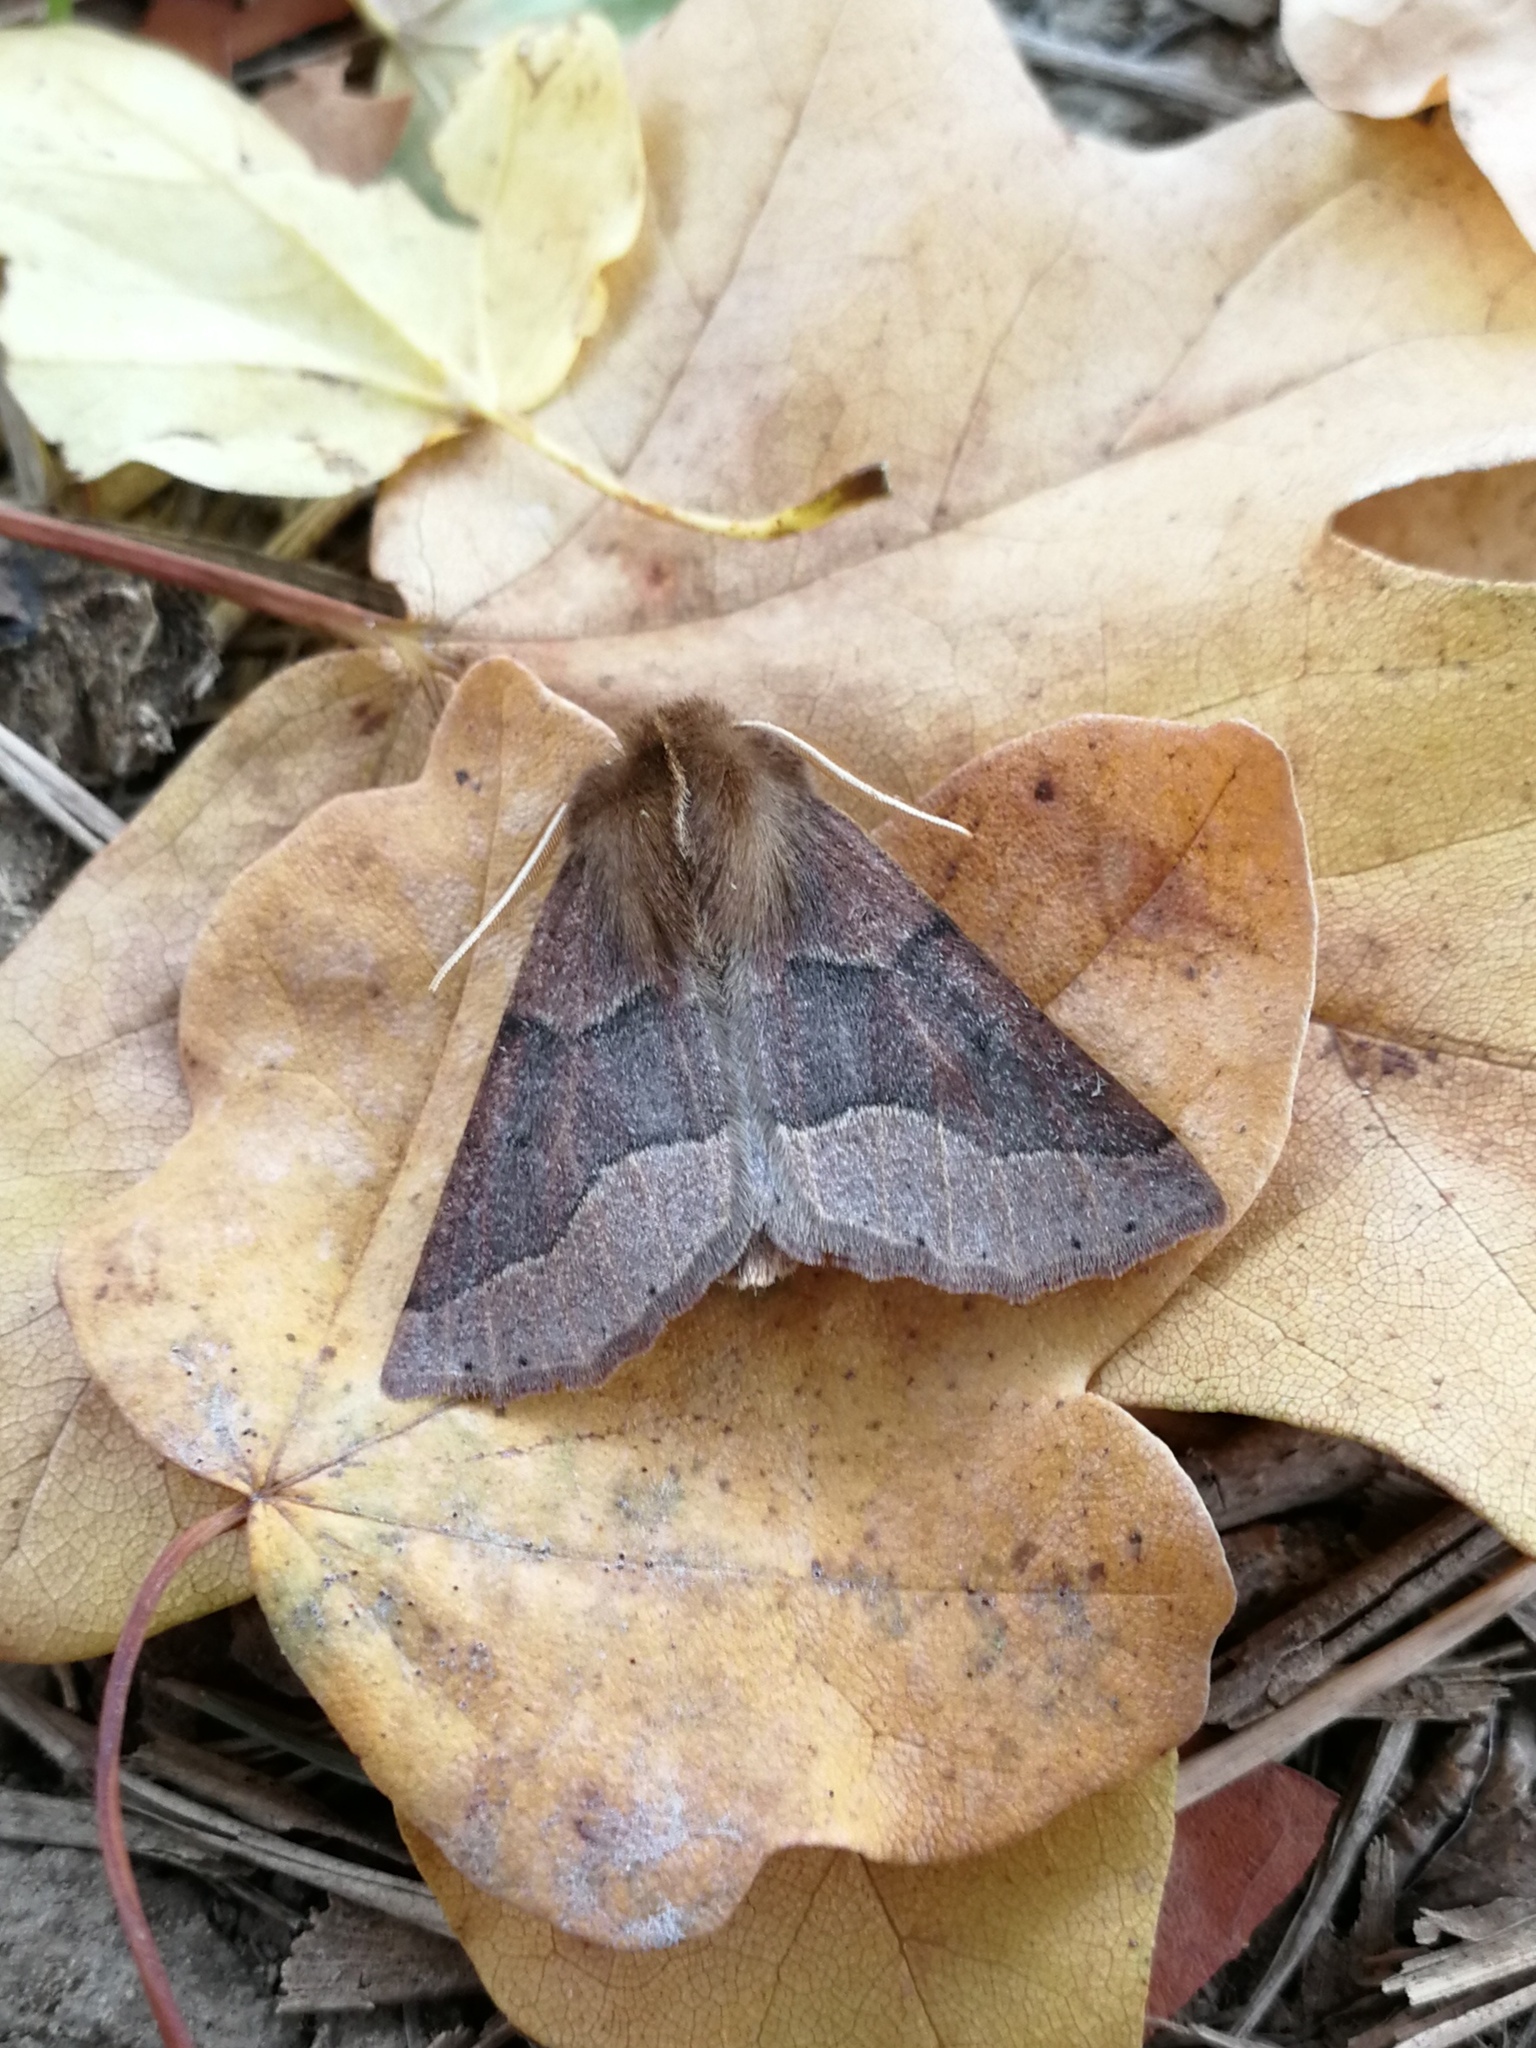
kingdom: Animalia
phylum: Arthropoda
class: Insecta
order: Lepidoptera
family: Geometridae
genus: Crocallis
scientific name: Crocallis tusciaria
